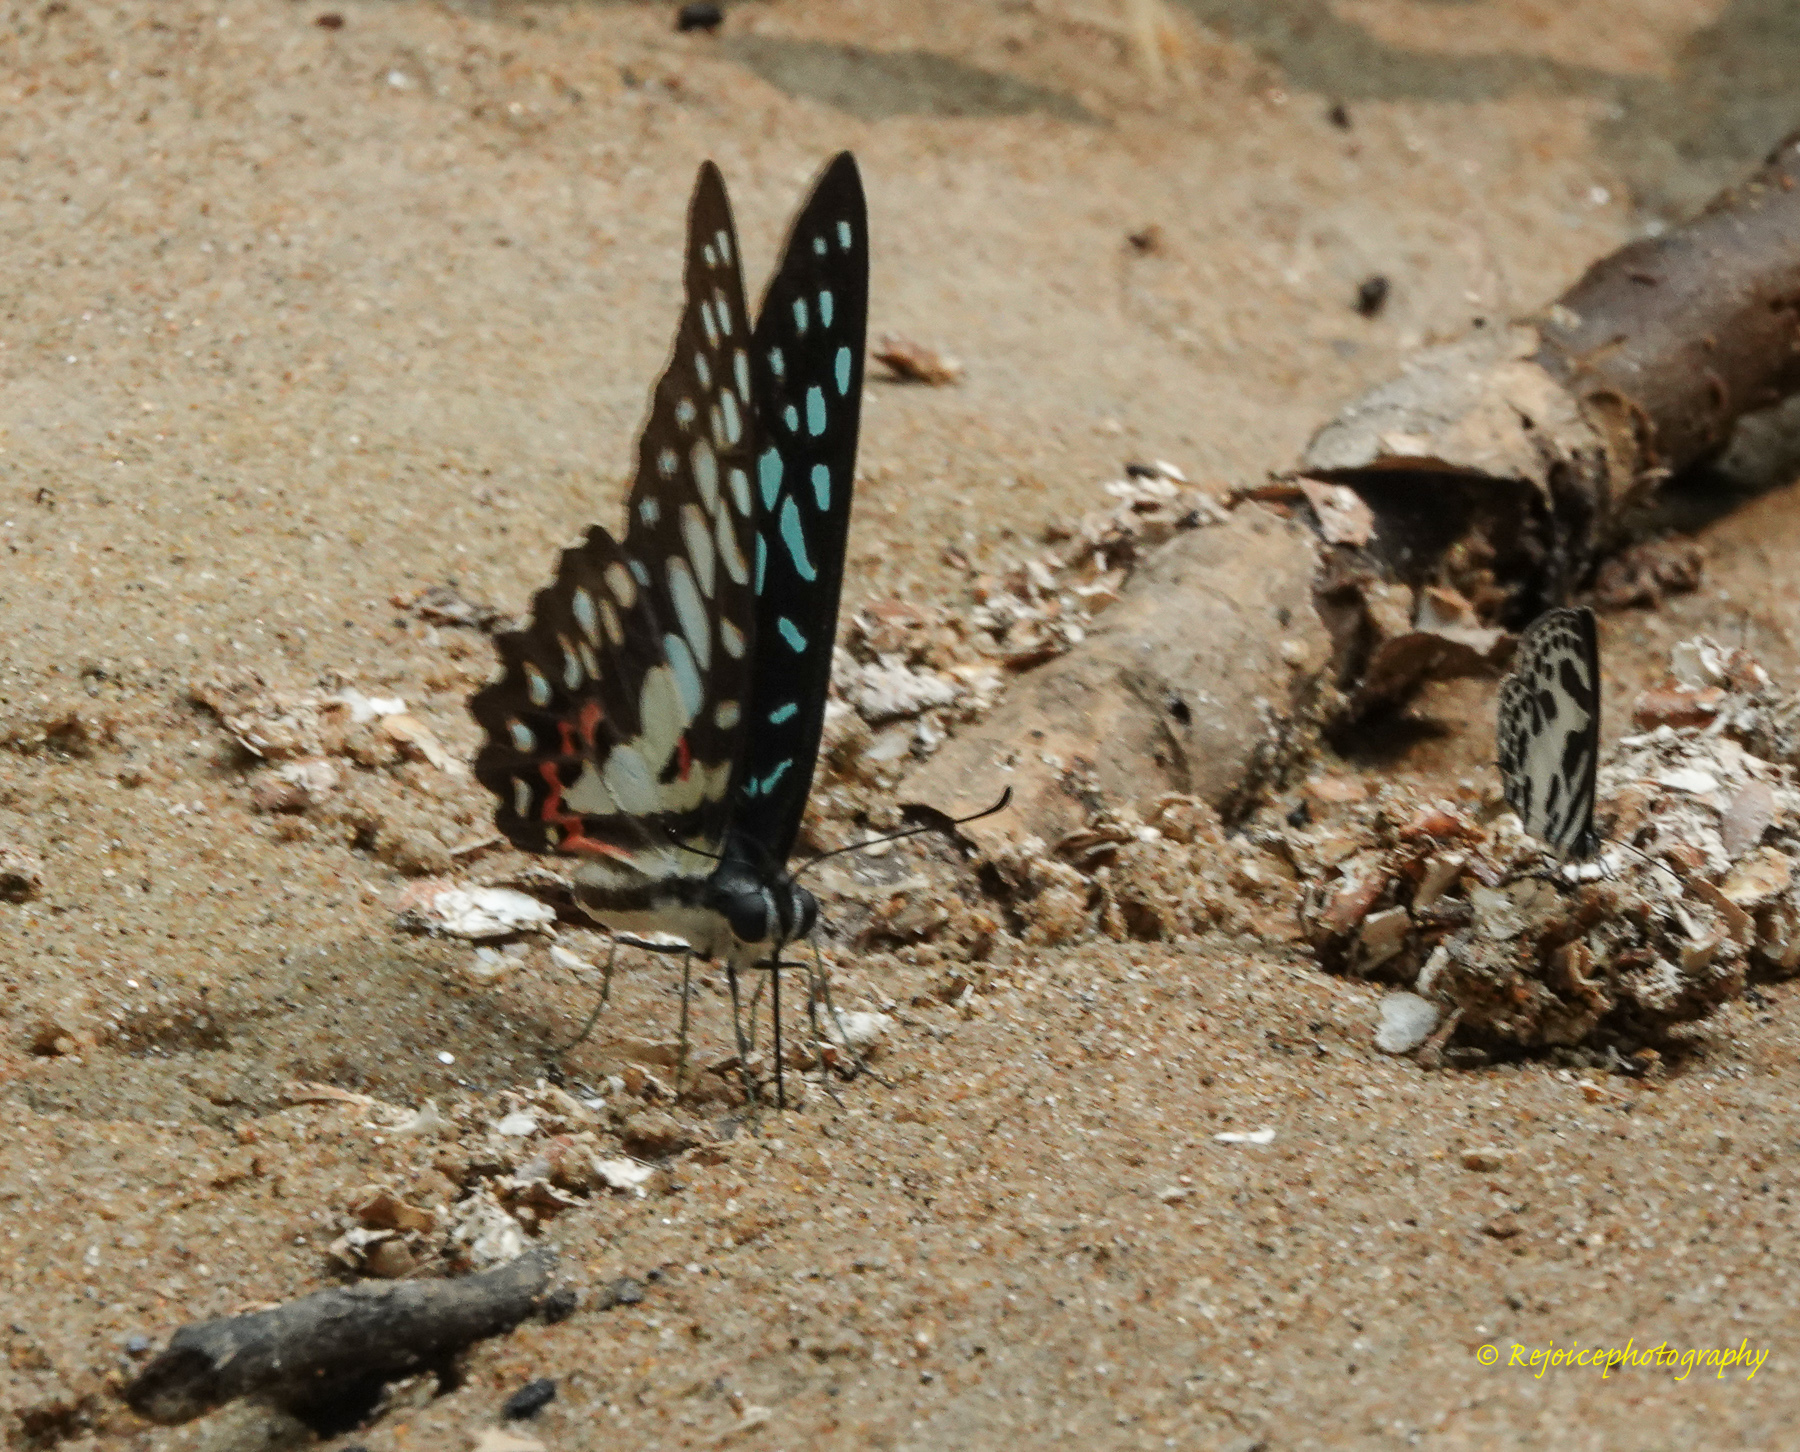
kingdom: Animalia
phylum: Arthropoda
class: Insecta
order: Lepidoptera
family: Papilionidae
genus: Graphium
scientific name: Graphium doson
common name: Common jay
